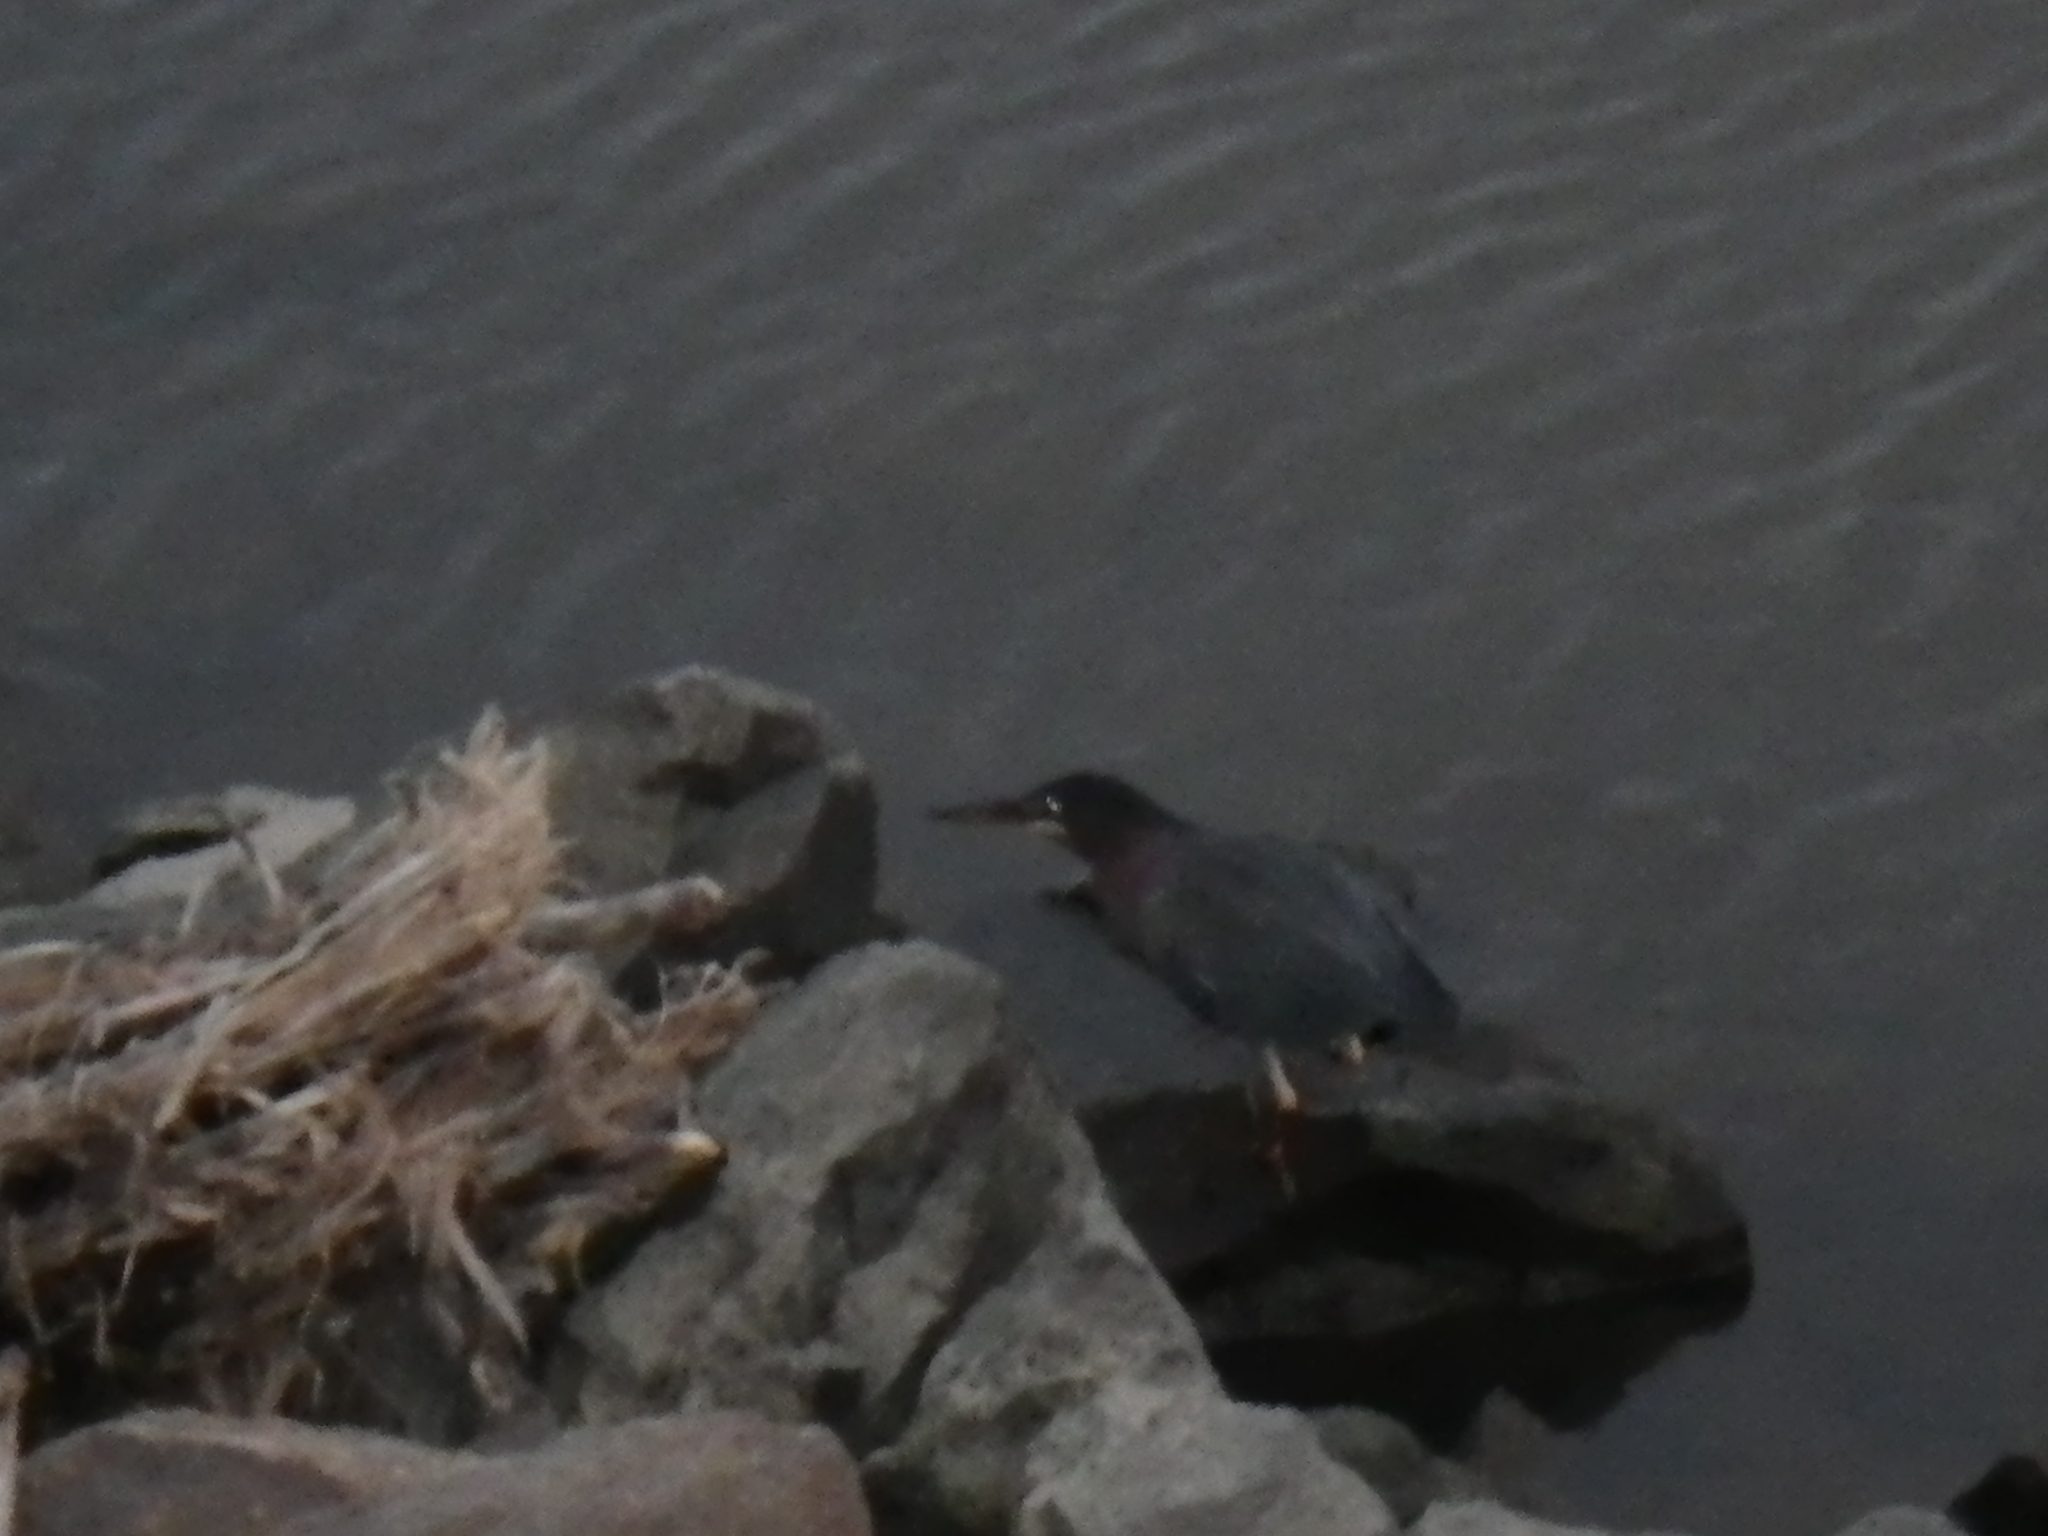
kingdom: Animalia
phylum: Chordata
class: Aves
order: Pelecaniformes
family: Ardeidae
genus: Butorides
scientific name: Butorides virescens
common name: Green heron
